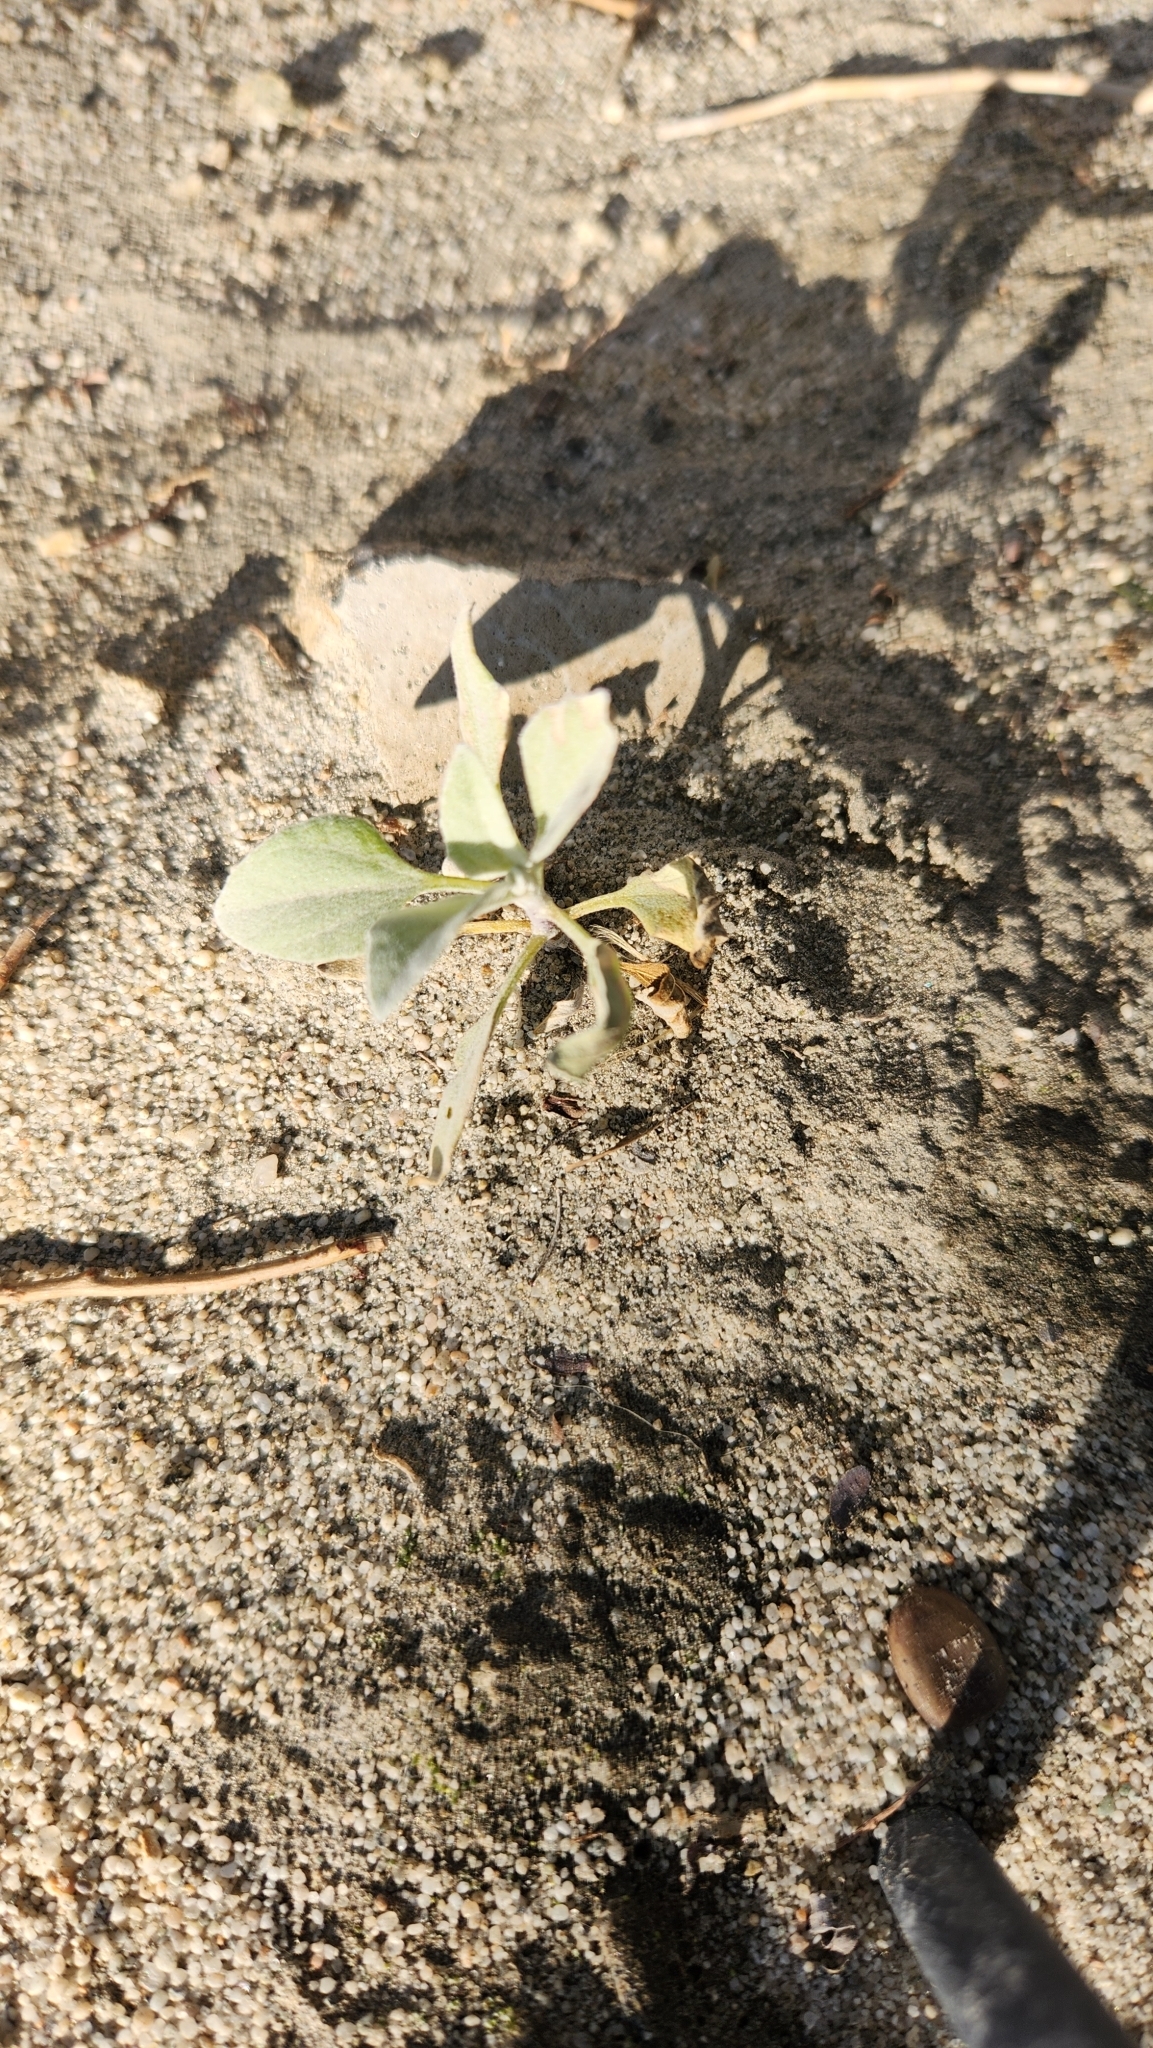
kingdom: Plantae
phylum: Tracheophyta
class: Magnoliopsida
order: Asterales
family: Asteraceae
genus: Encelia
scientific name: Encelia farinosa
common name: Brittlebush
